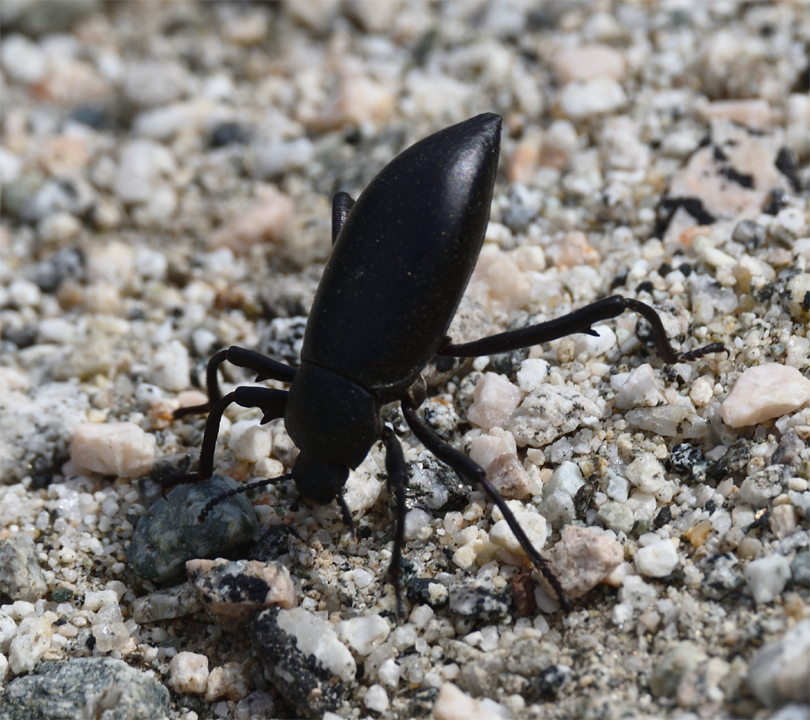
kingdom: Animalia
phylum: Arthropoda
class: Insecta
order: Coleoptera
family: Tenebrionidae
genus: Eleodes
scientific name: Eleodes armata
